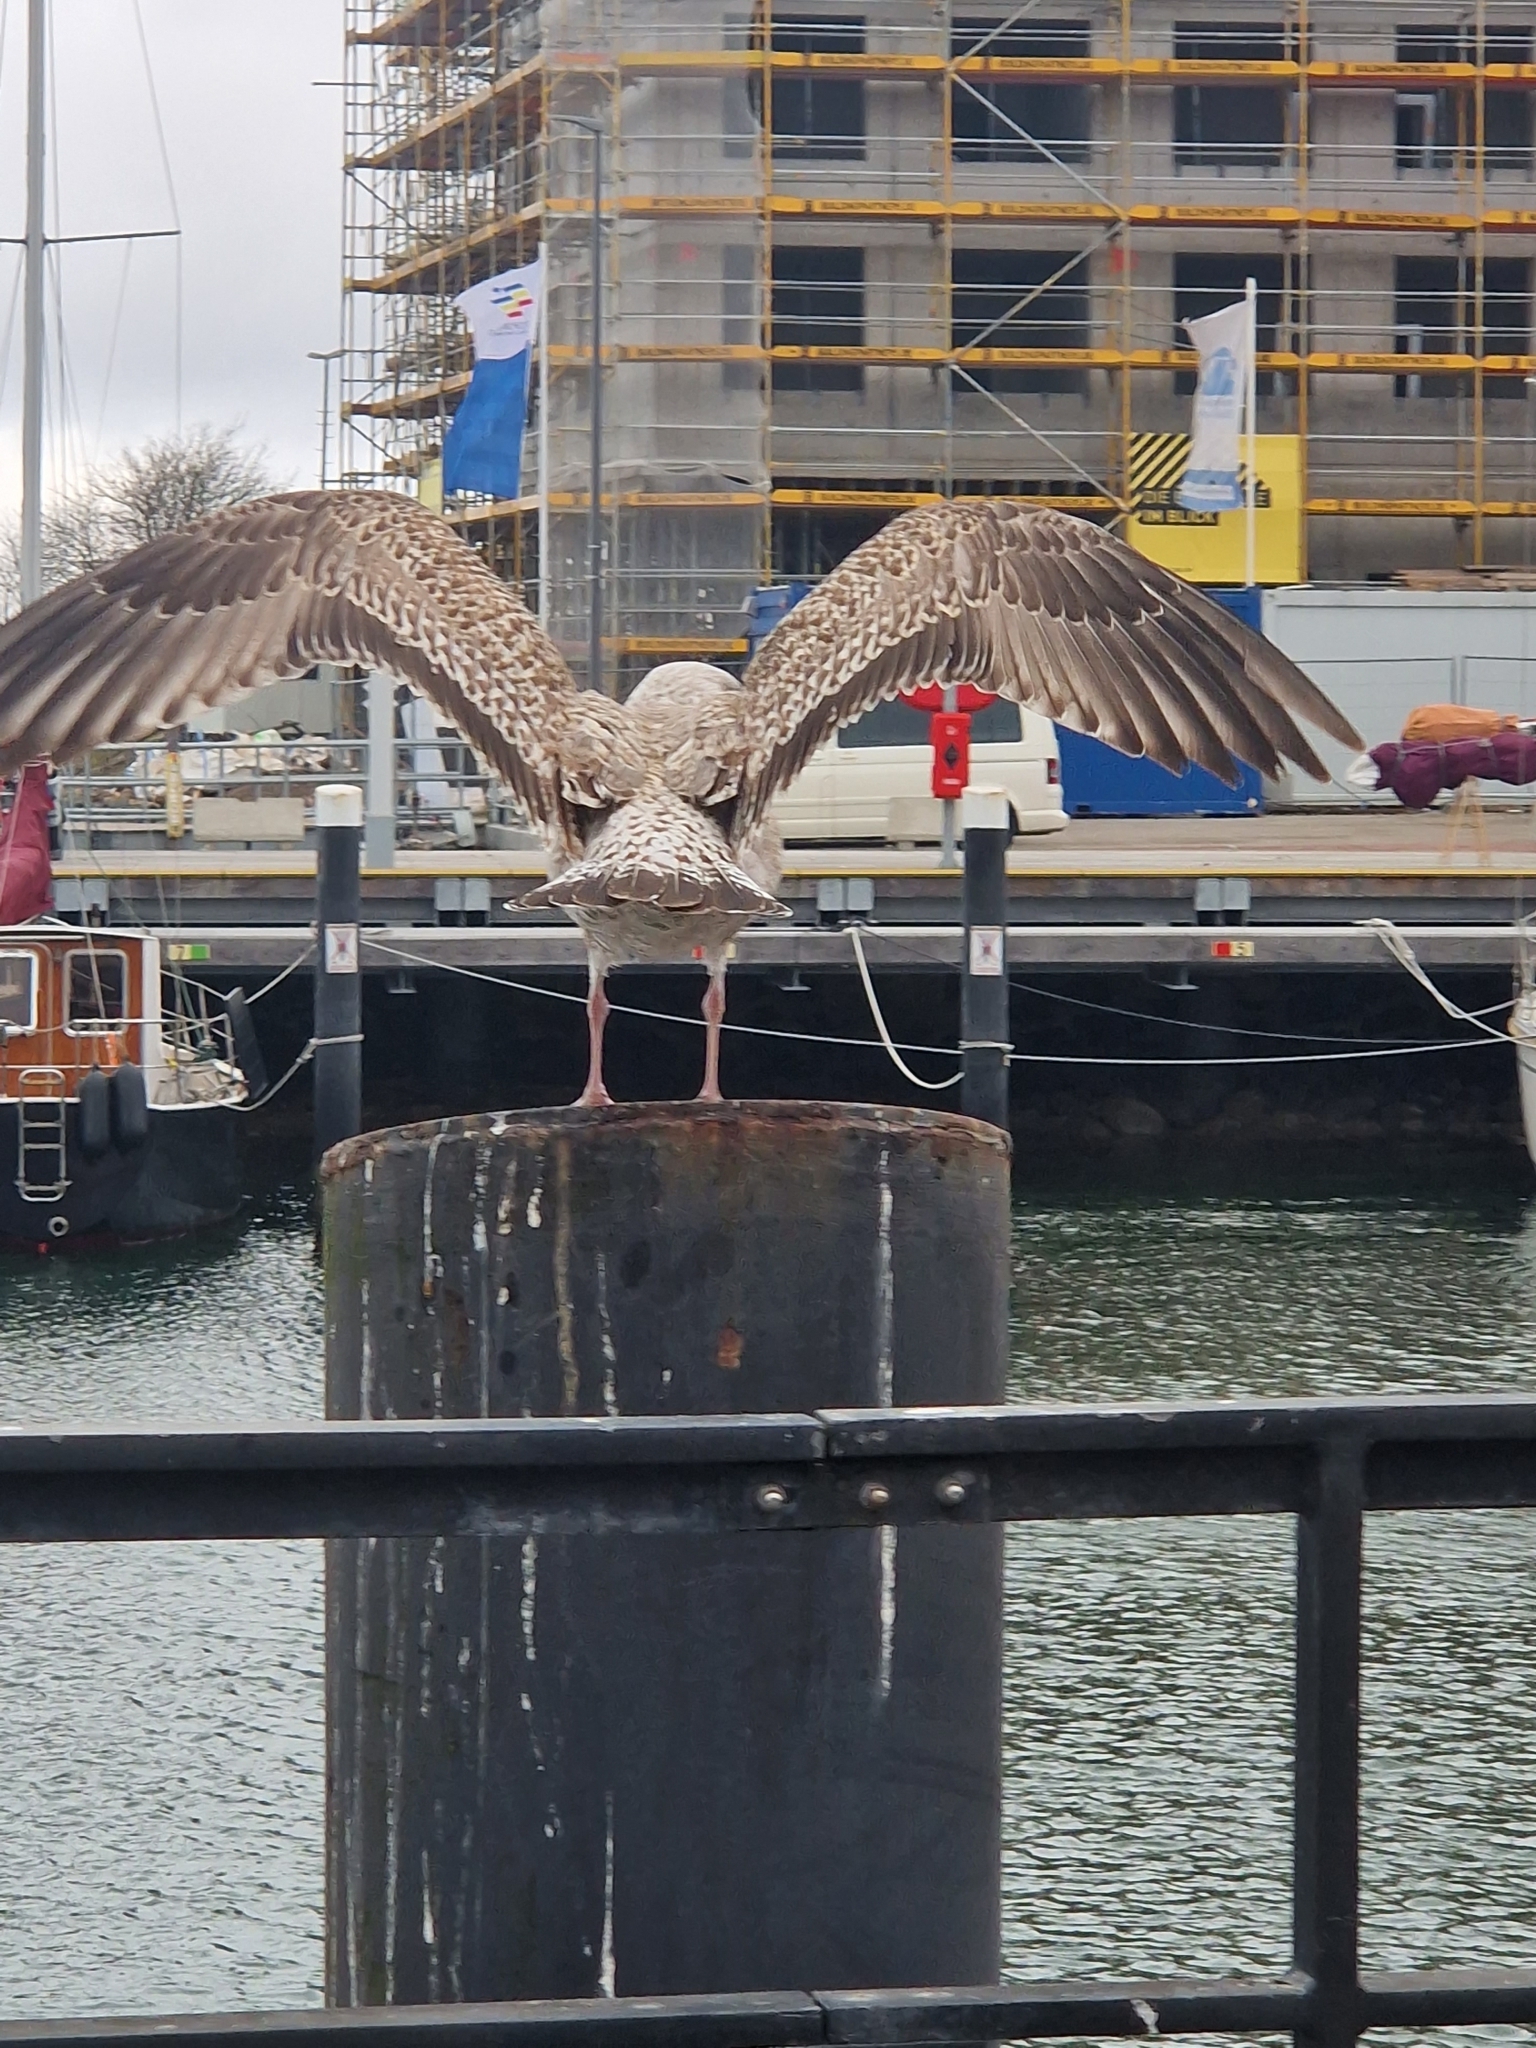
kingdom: Animalia
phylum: Chordata
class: Aves
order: Charadriiformes
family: Laridae
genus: Larus
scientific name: Larus argentatus
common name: Herring gull
